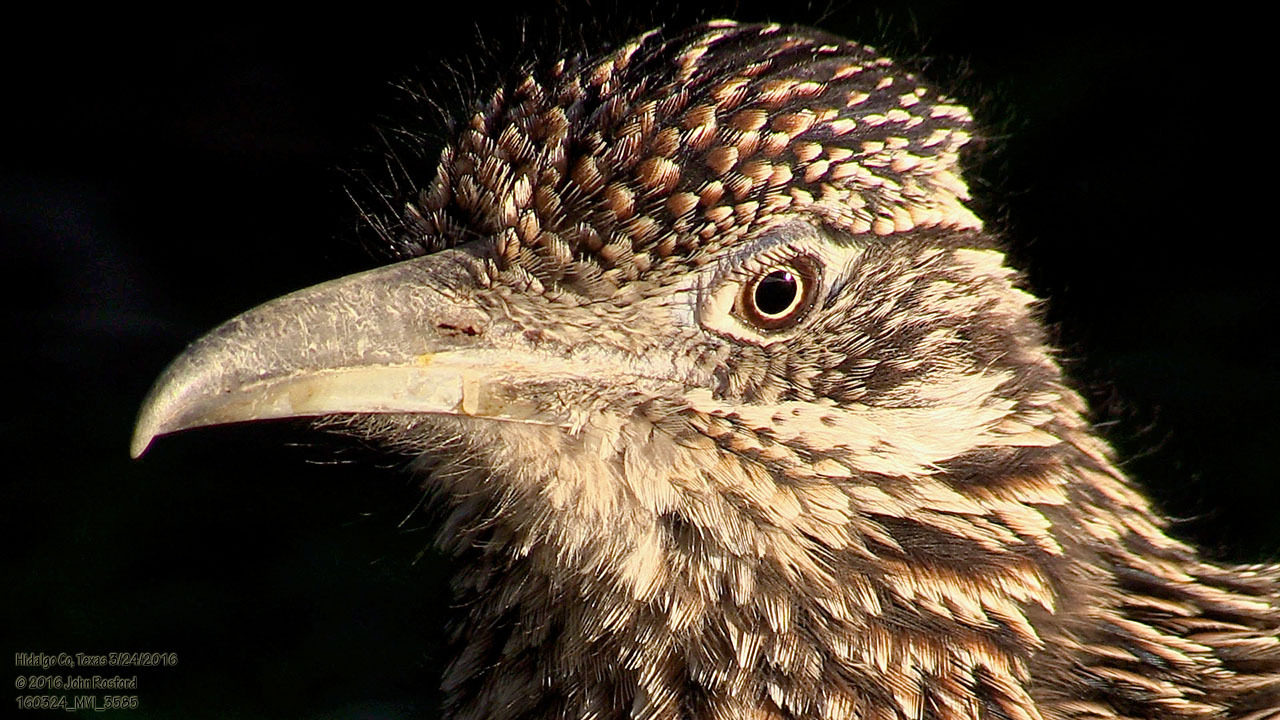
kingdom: Animalia
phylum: Chordata
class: Aves
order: Cuculiformes
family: Cuculidae
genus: Geococcyx
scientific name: Geococcyx californianus
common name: Greater roadrunner
